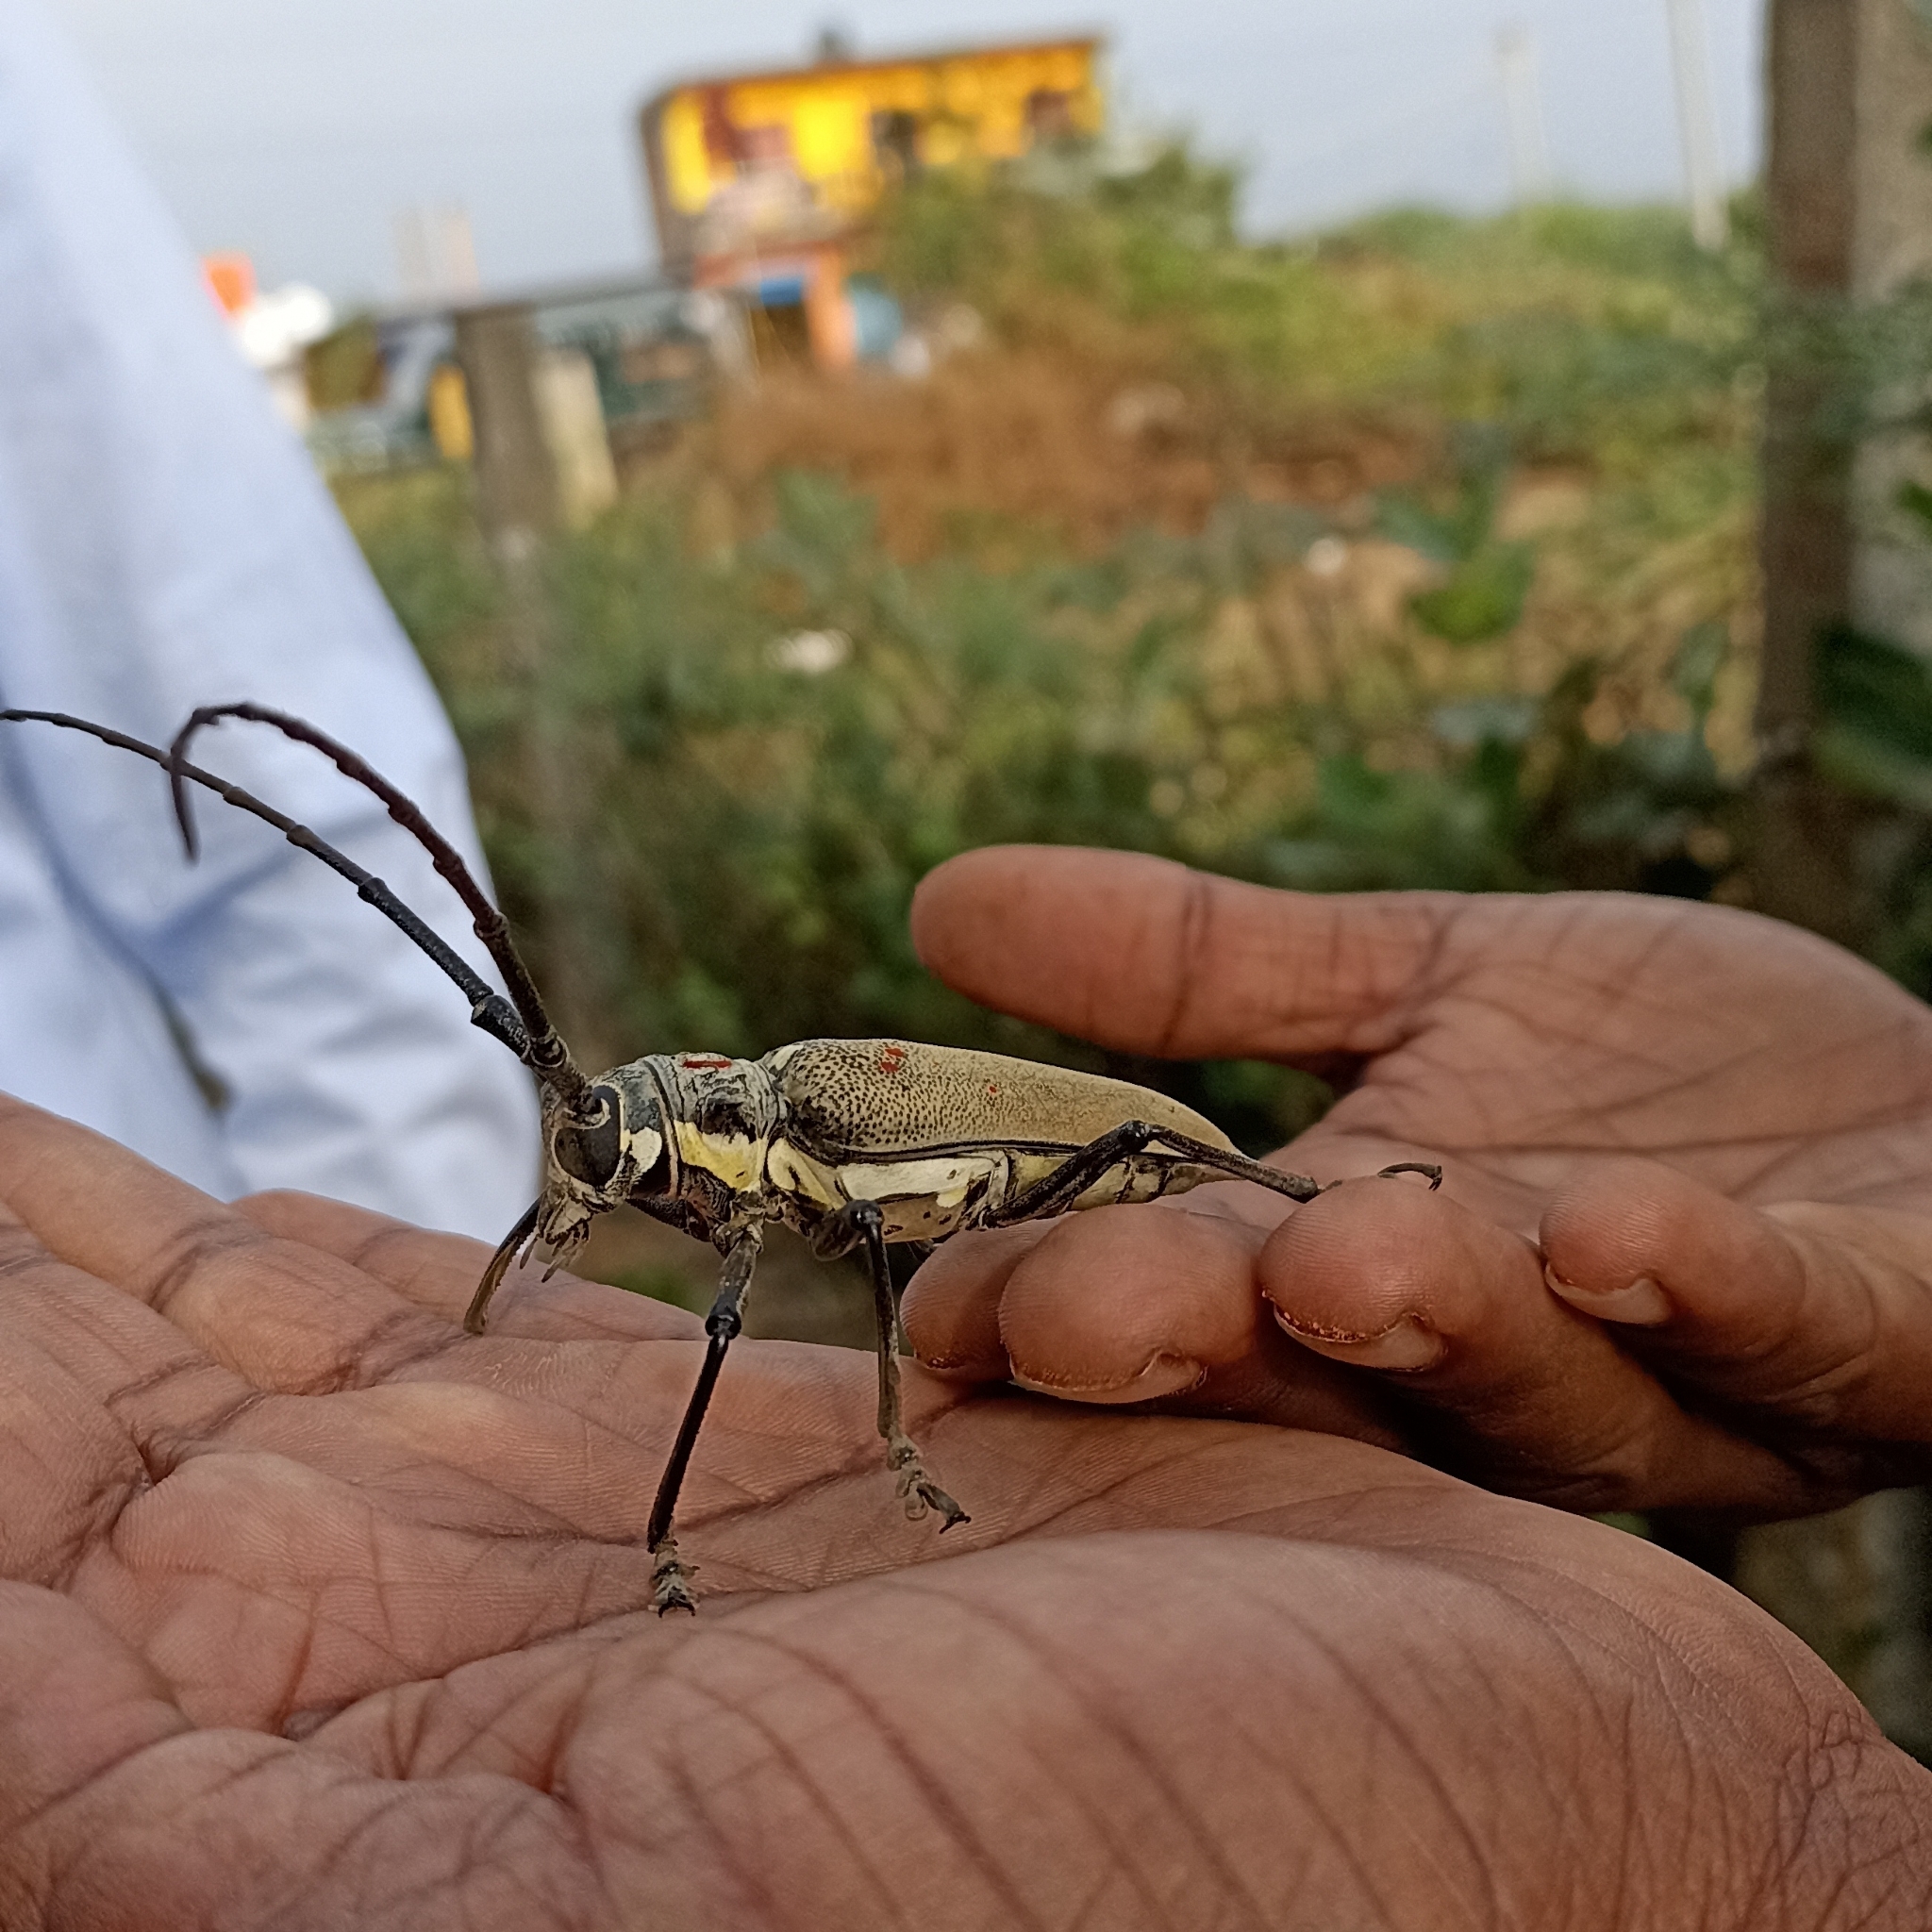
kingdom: Animalia
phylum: Arthropoda
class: Insecta
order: Coleoptera
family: Cerambycidae
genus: Batocera
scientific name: Batocera rufomaculata
